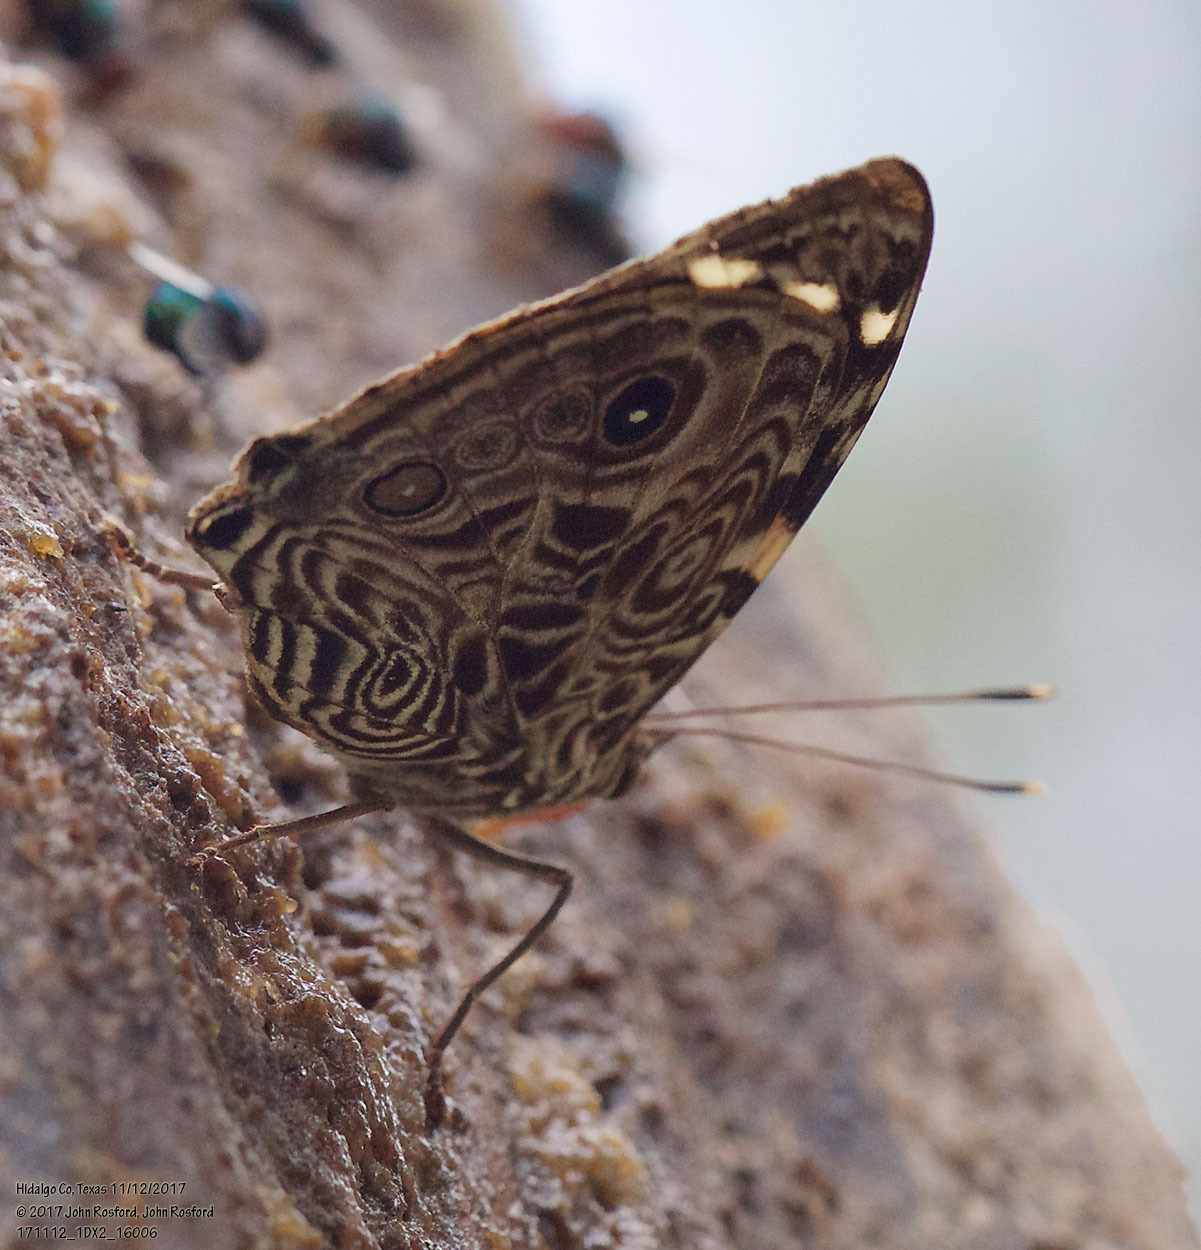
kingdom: Animalia
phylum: Arthropoda
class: Insecta
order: Lepidoptera
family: Nymphalidae
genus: Smyrna
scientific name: Smyrna blomfildia
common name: Blomfild's beauty
